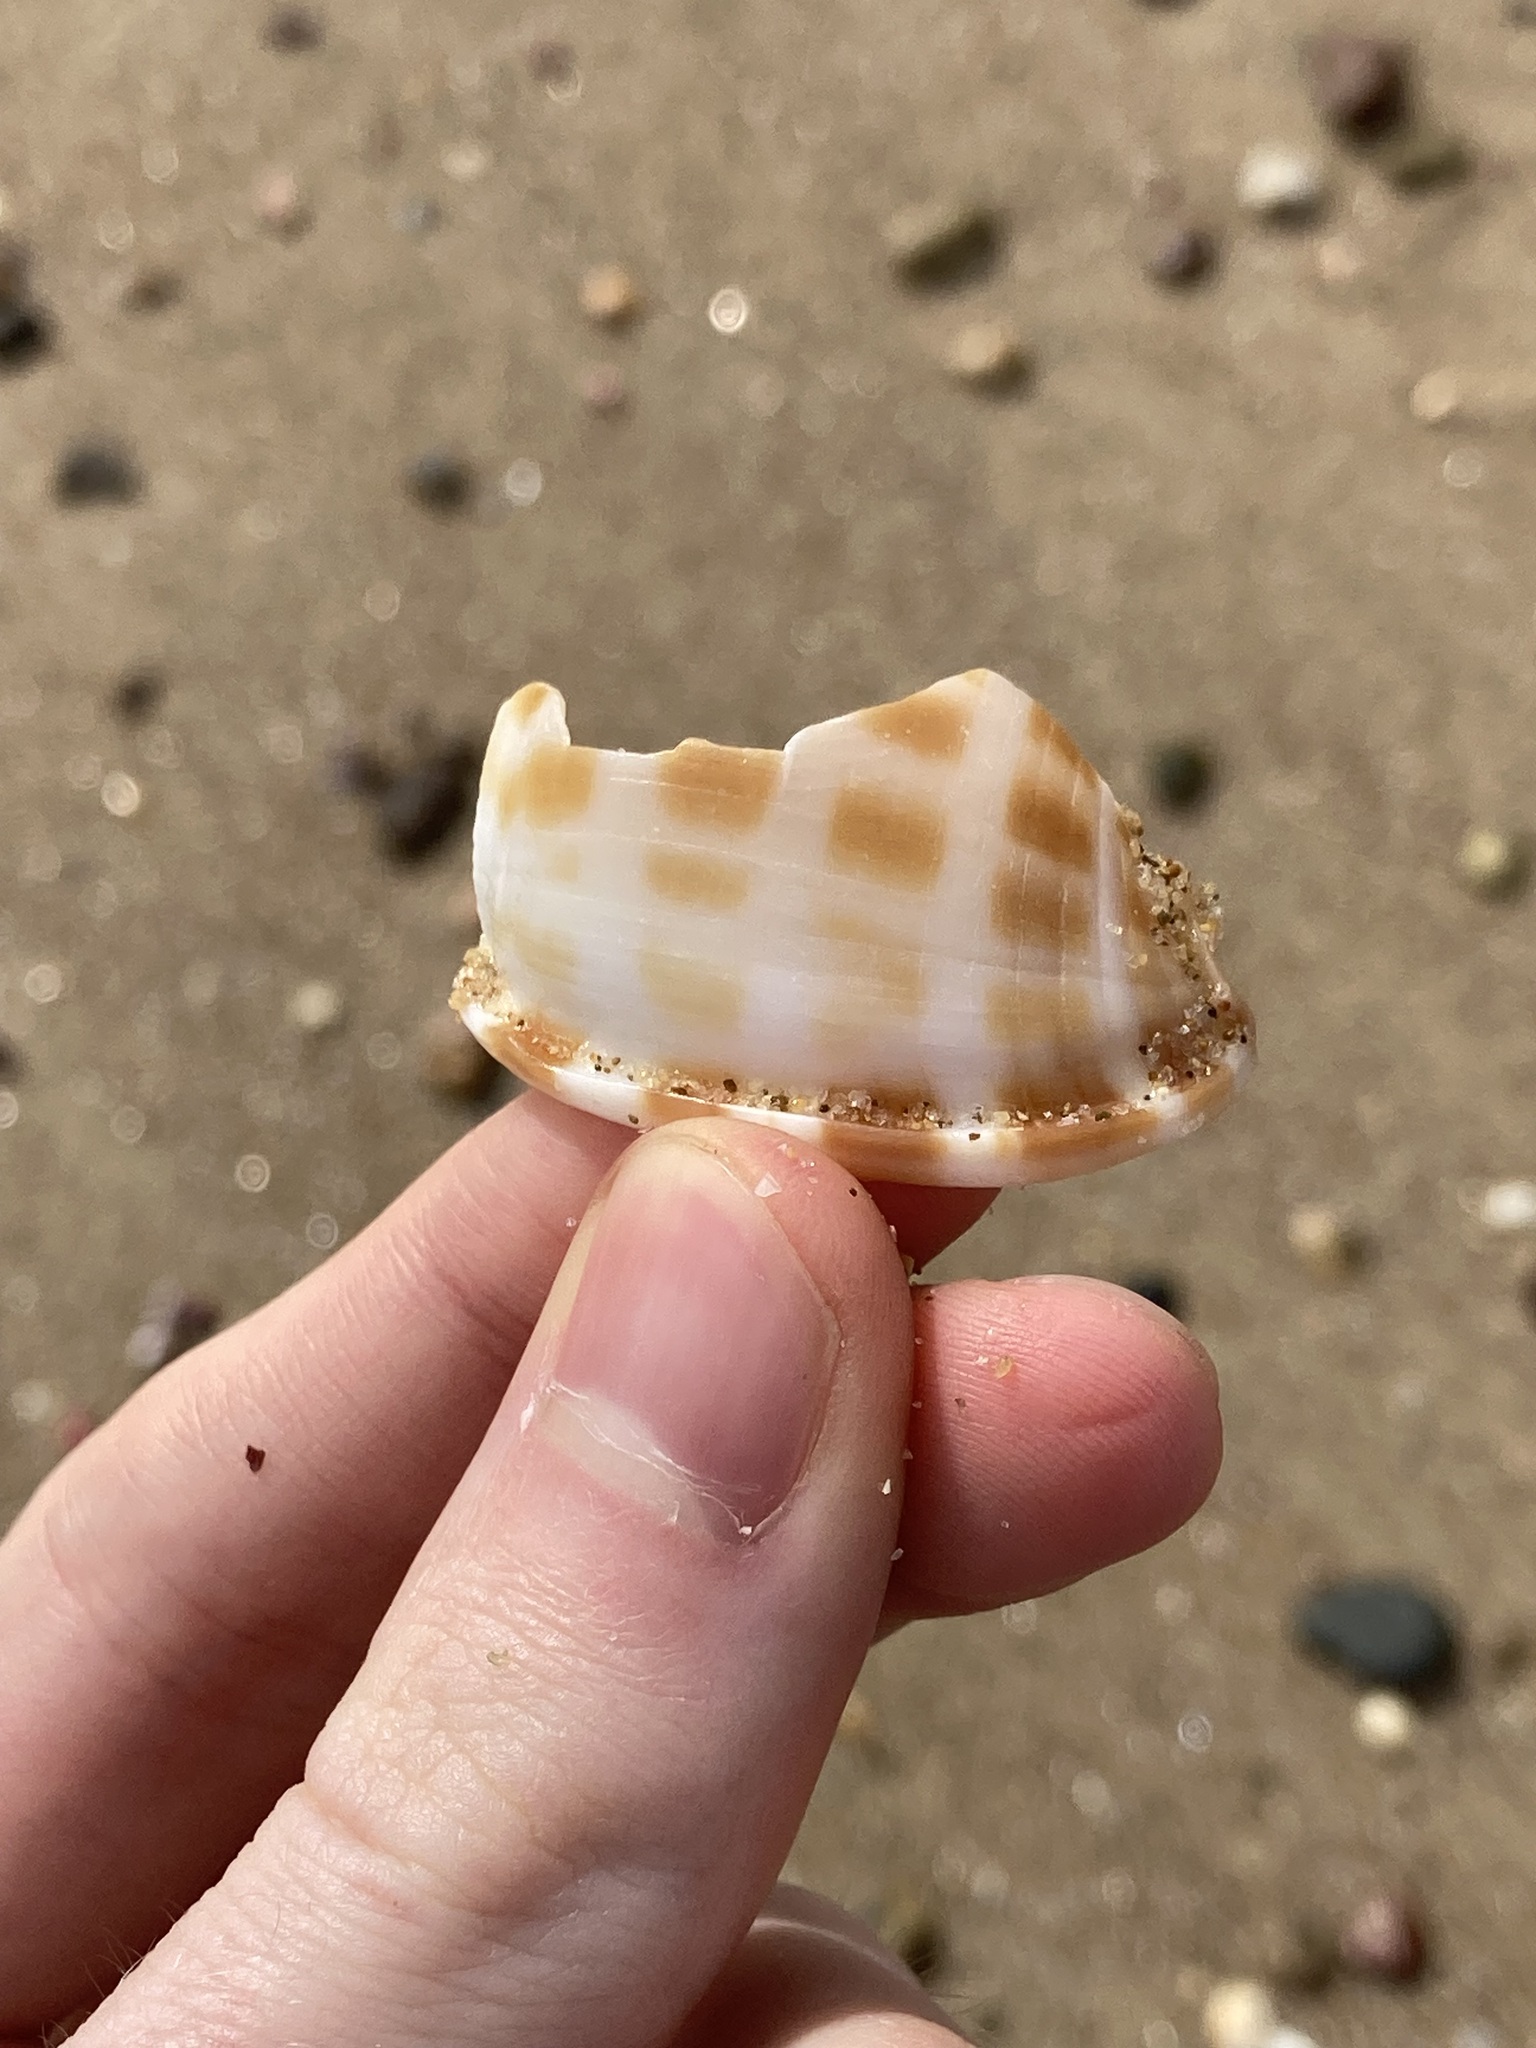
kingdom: Animalia
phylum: Mollusca
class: Gastropoda
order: Littorinimorpha
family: Cassidae
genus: Phalium
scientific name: Phalium areola
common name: Checkered bonnet
